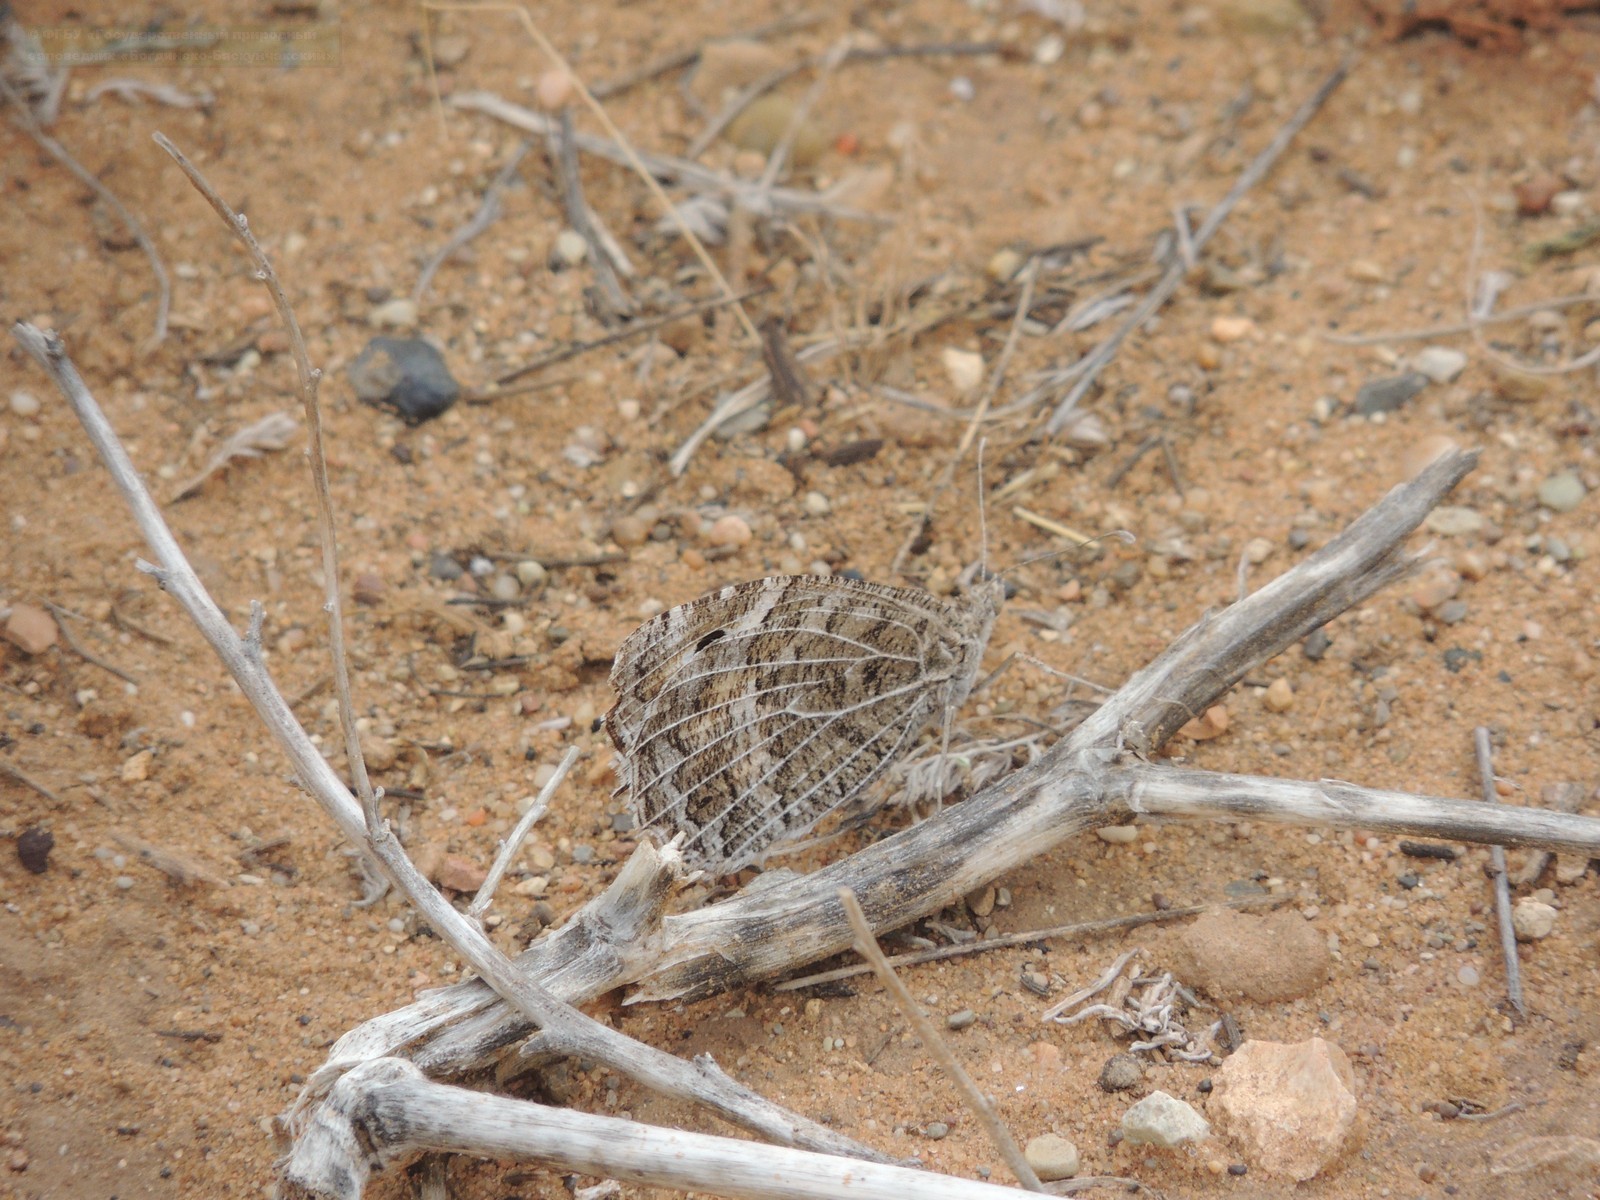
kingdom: Animalia
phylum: Arthropoda
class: Insecta
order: Lepidoptera
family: Nymphalidae
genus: Satyrus
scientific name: Satyrus Chazara persephone
